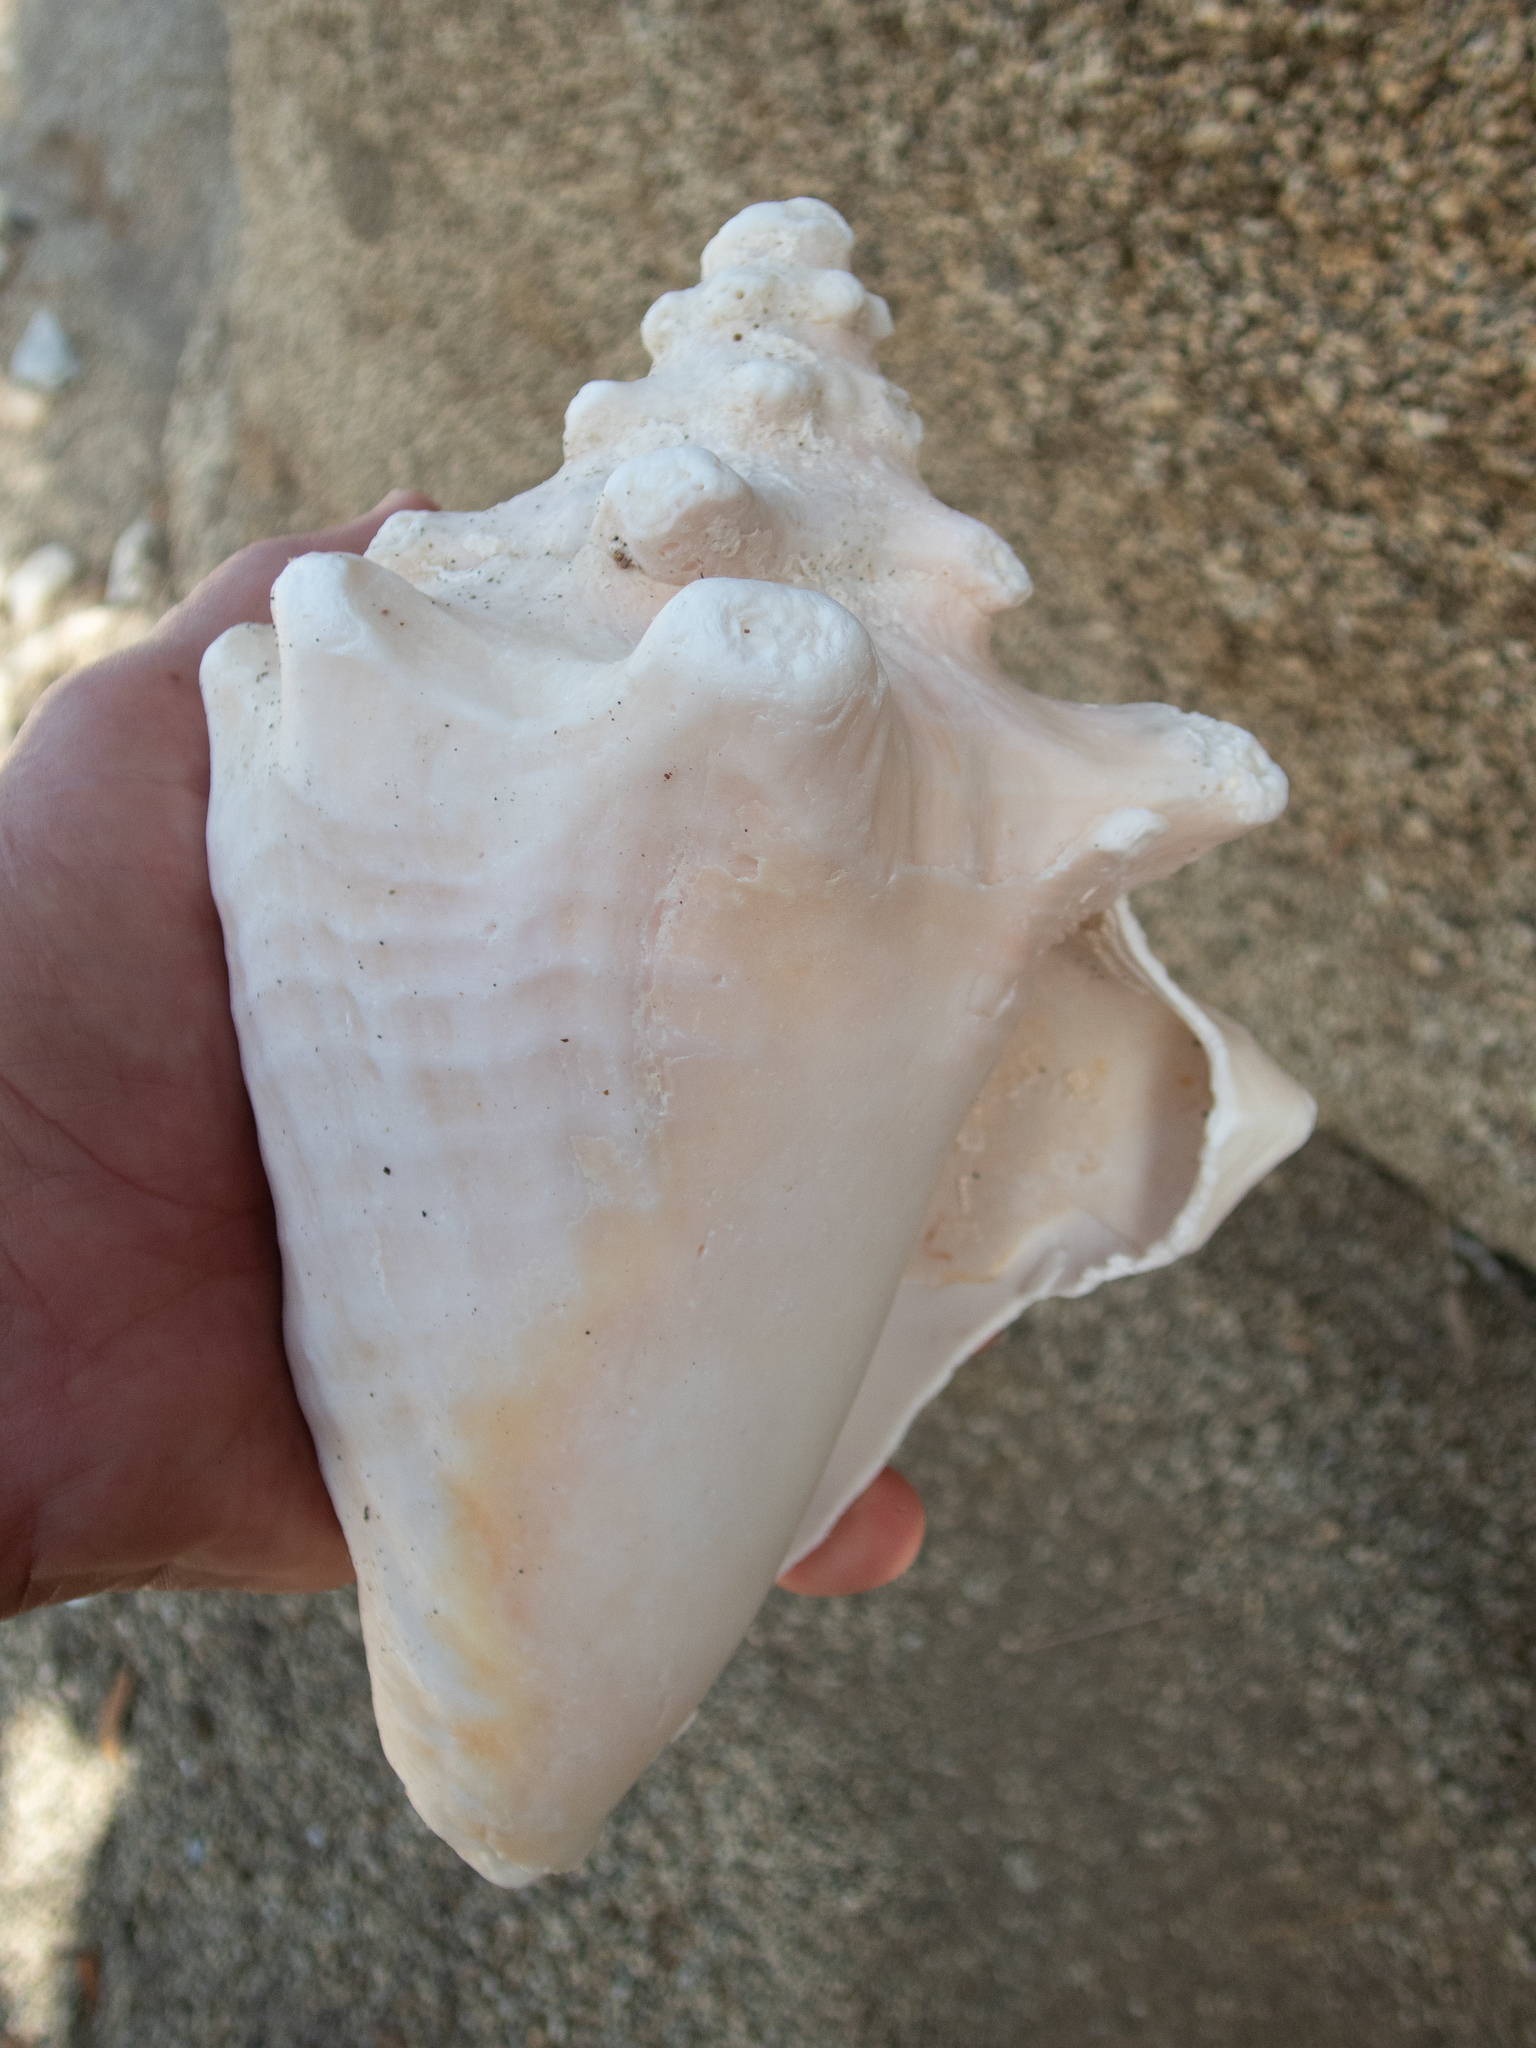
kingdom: Animalia
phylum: Mollusca
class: Gastropoda
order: Littorinimorpha
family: Strombidae
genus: Aliger
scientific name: Aliger gigas
